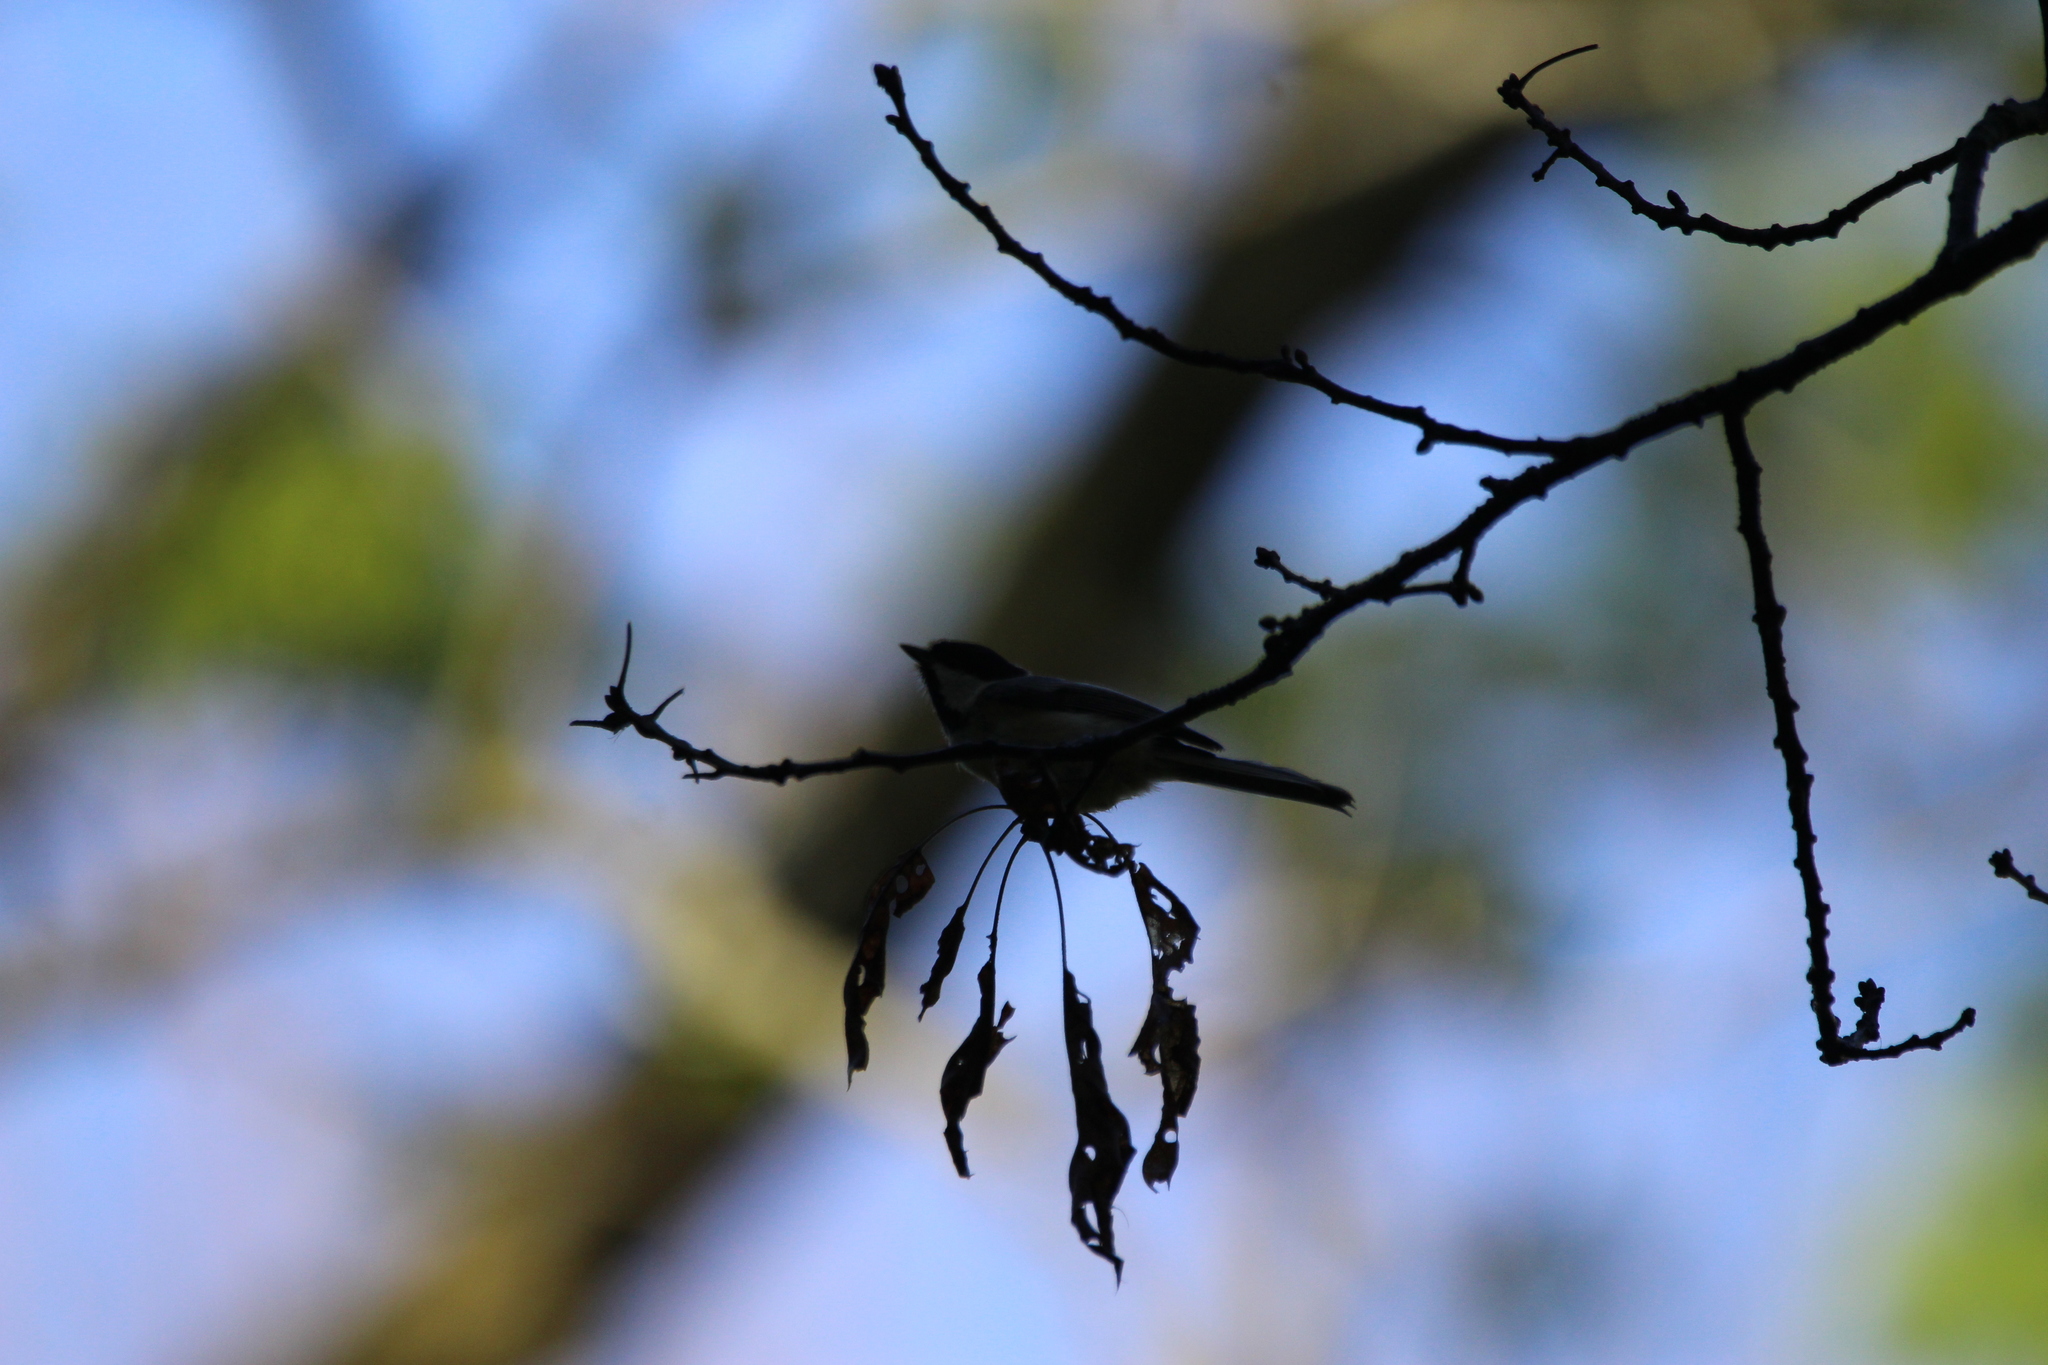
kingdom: Animalia
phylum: Chordata
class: Aves
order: Passeriformes
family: Paridae
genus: Poecile
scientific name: Poecile atricapillus
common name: Black-capped chickadee
